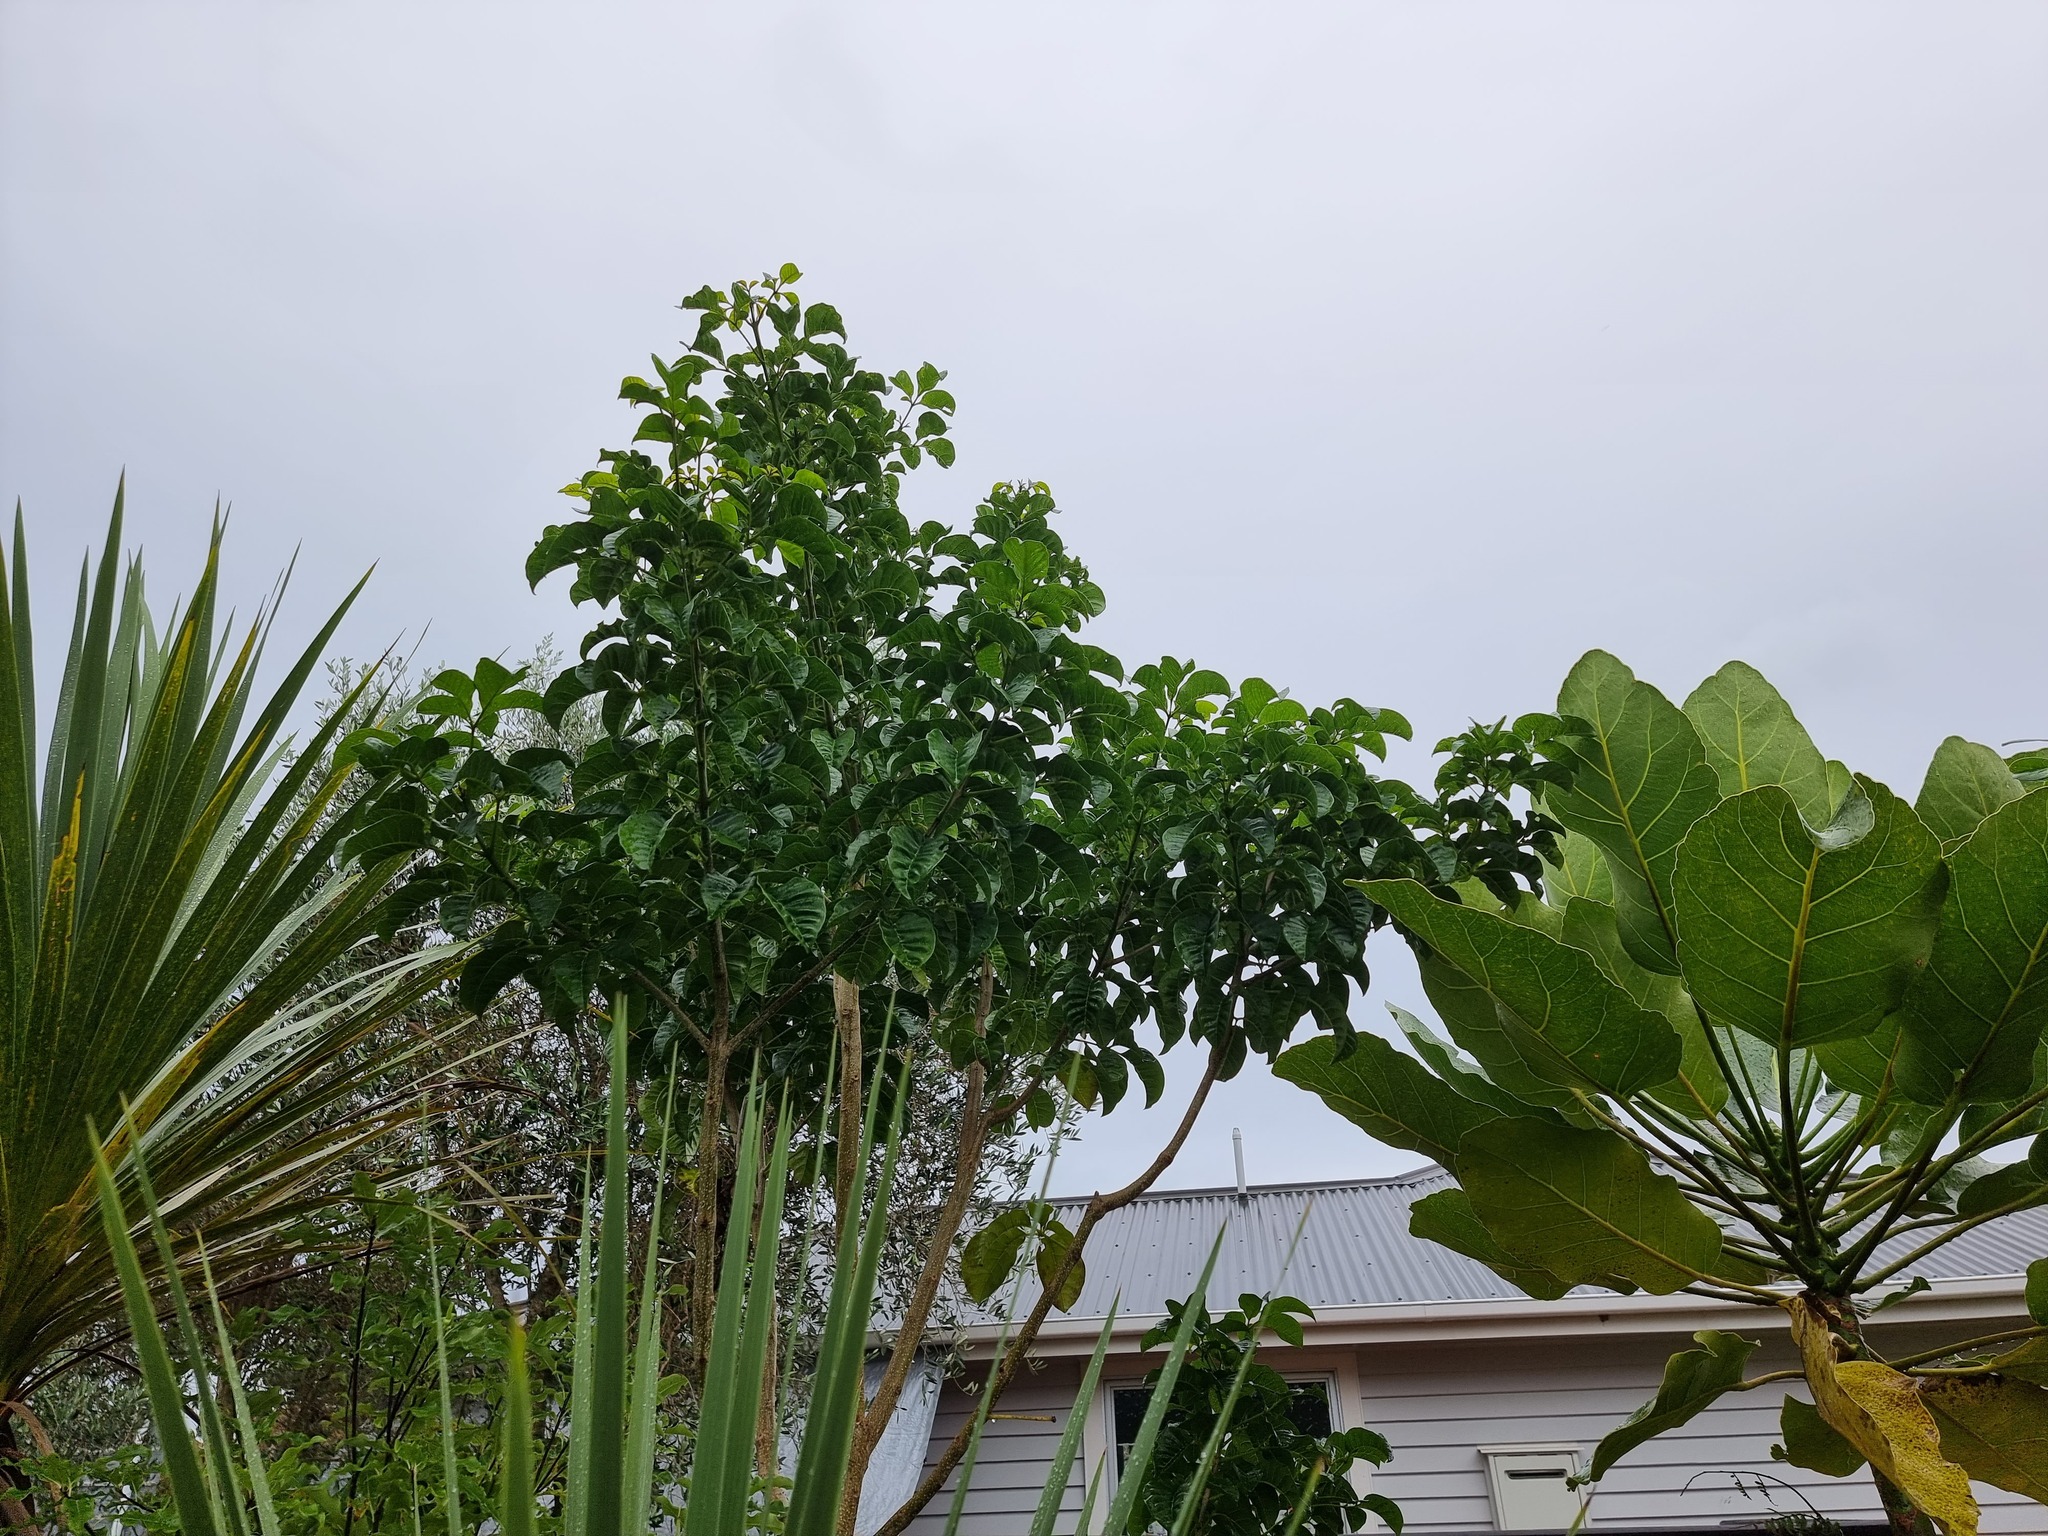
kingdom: Plantae
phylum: Tracheophyta
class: Magnoliopsida
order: Lamiales
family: Lamiaceae
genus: Vitex
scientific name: Vitex lucens
